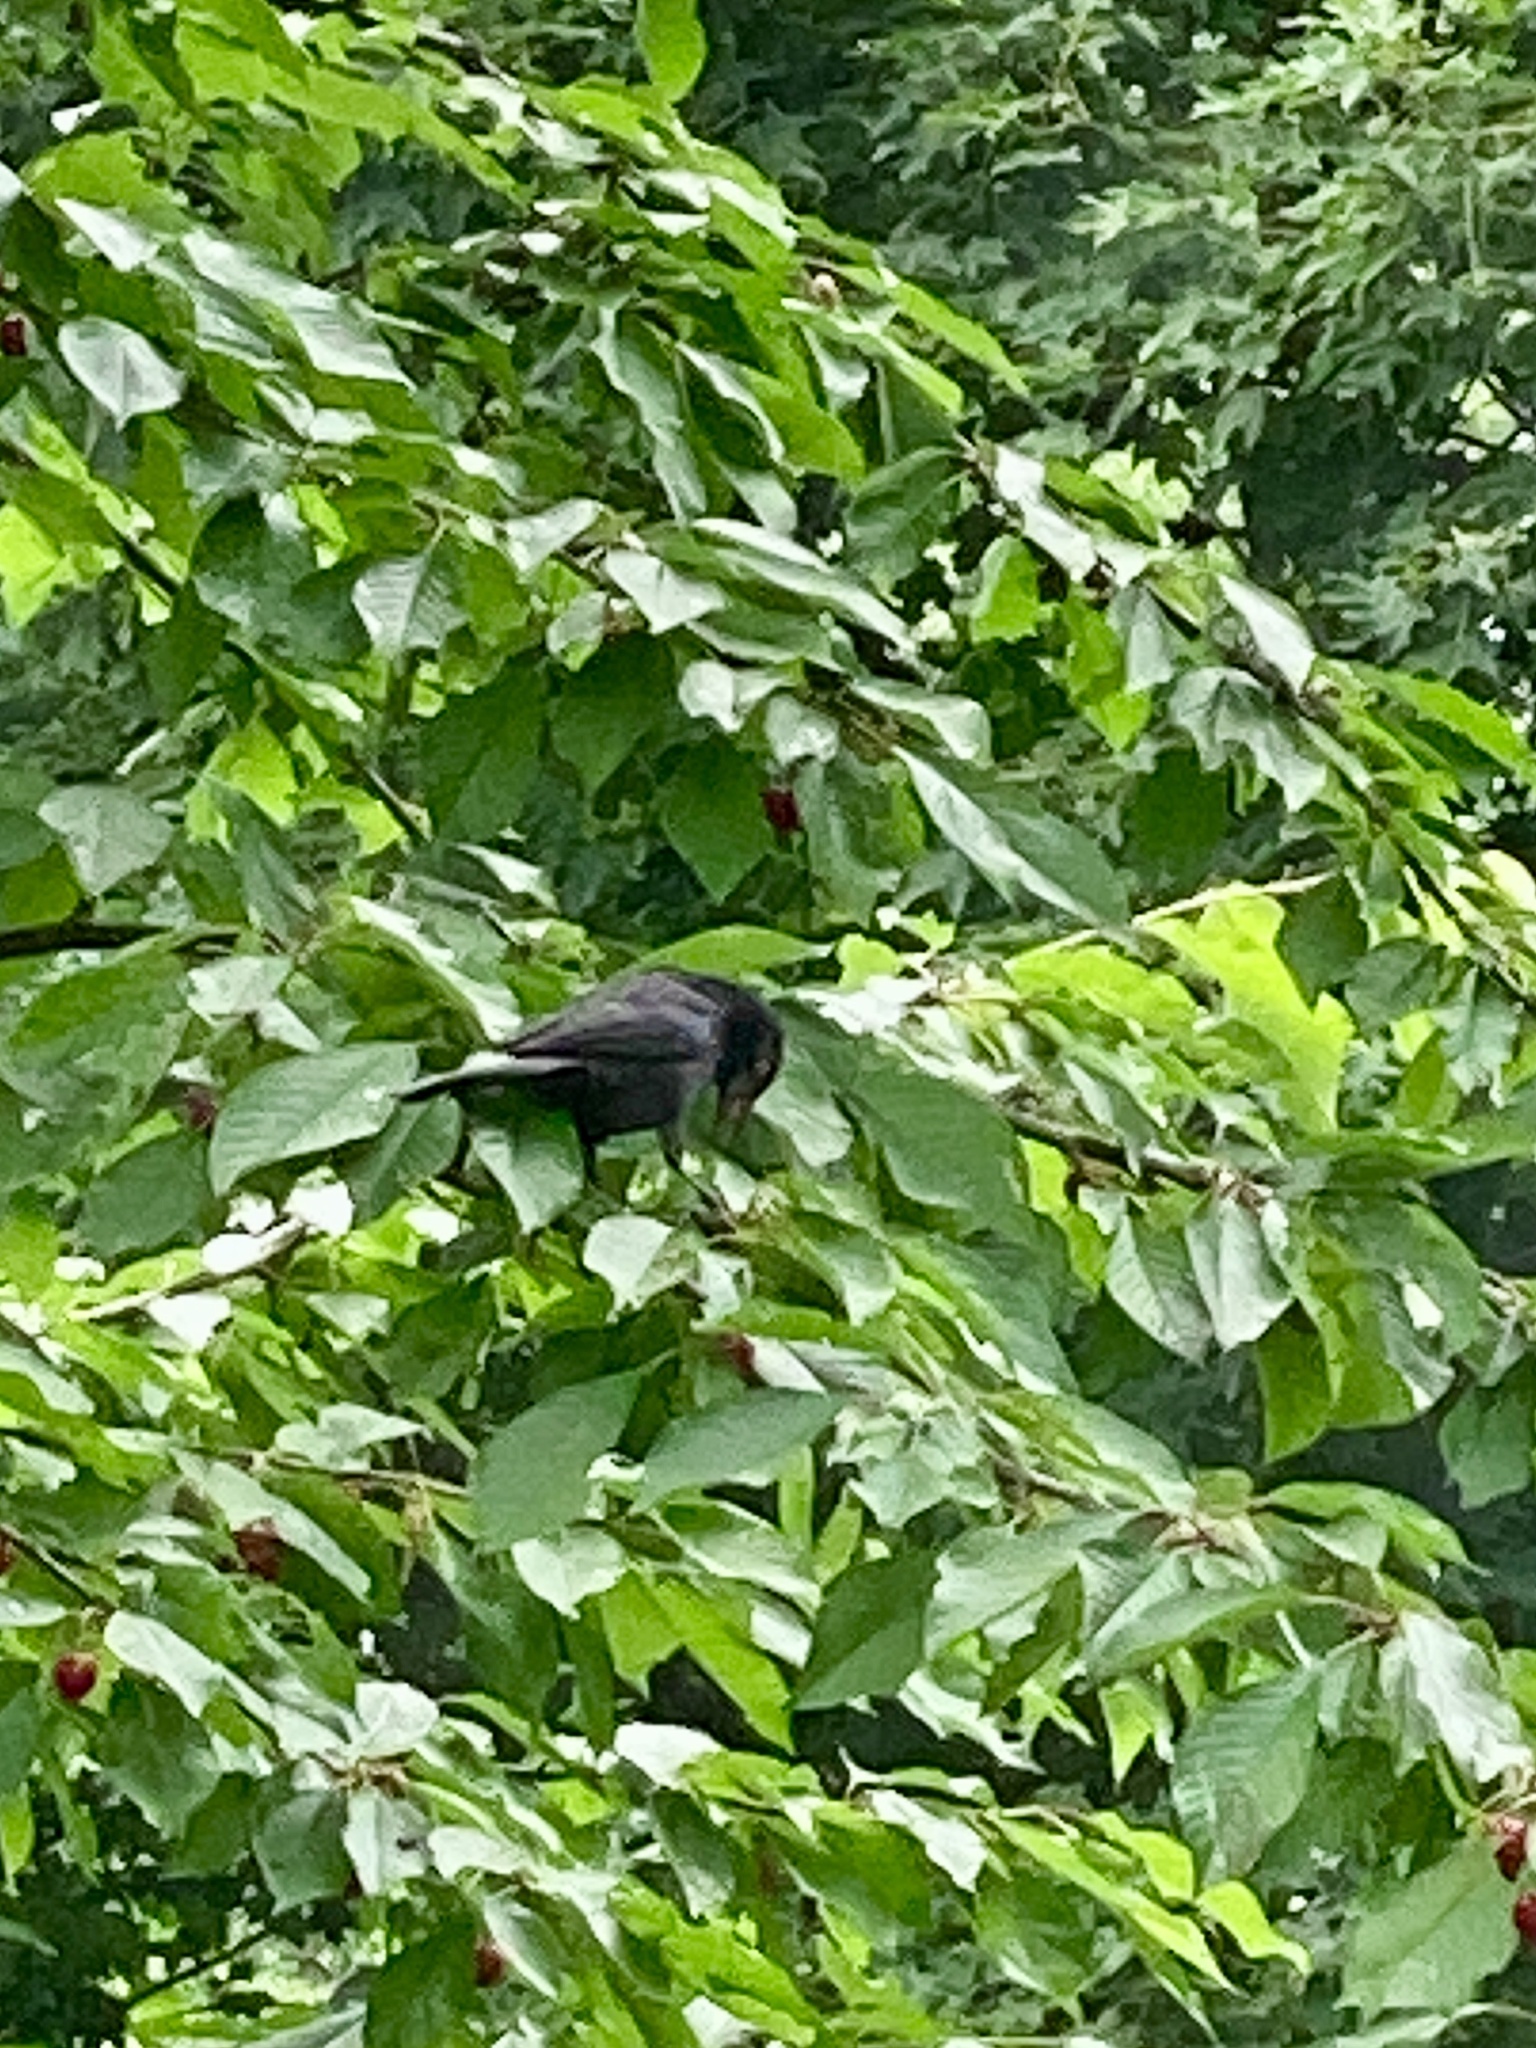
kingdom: Animalia
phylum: Chordata
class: Aves
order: Passeriformes
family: Icteridae
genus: Quiscalus
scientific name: Quiscalus quiscula
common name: Common grackle
